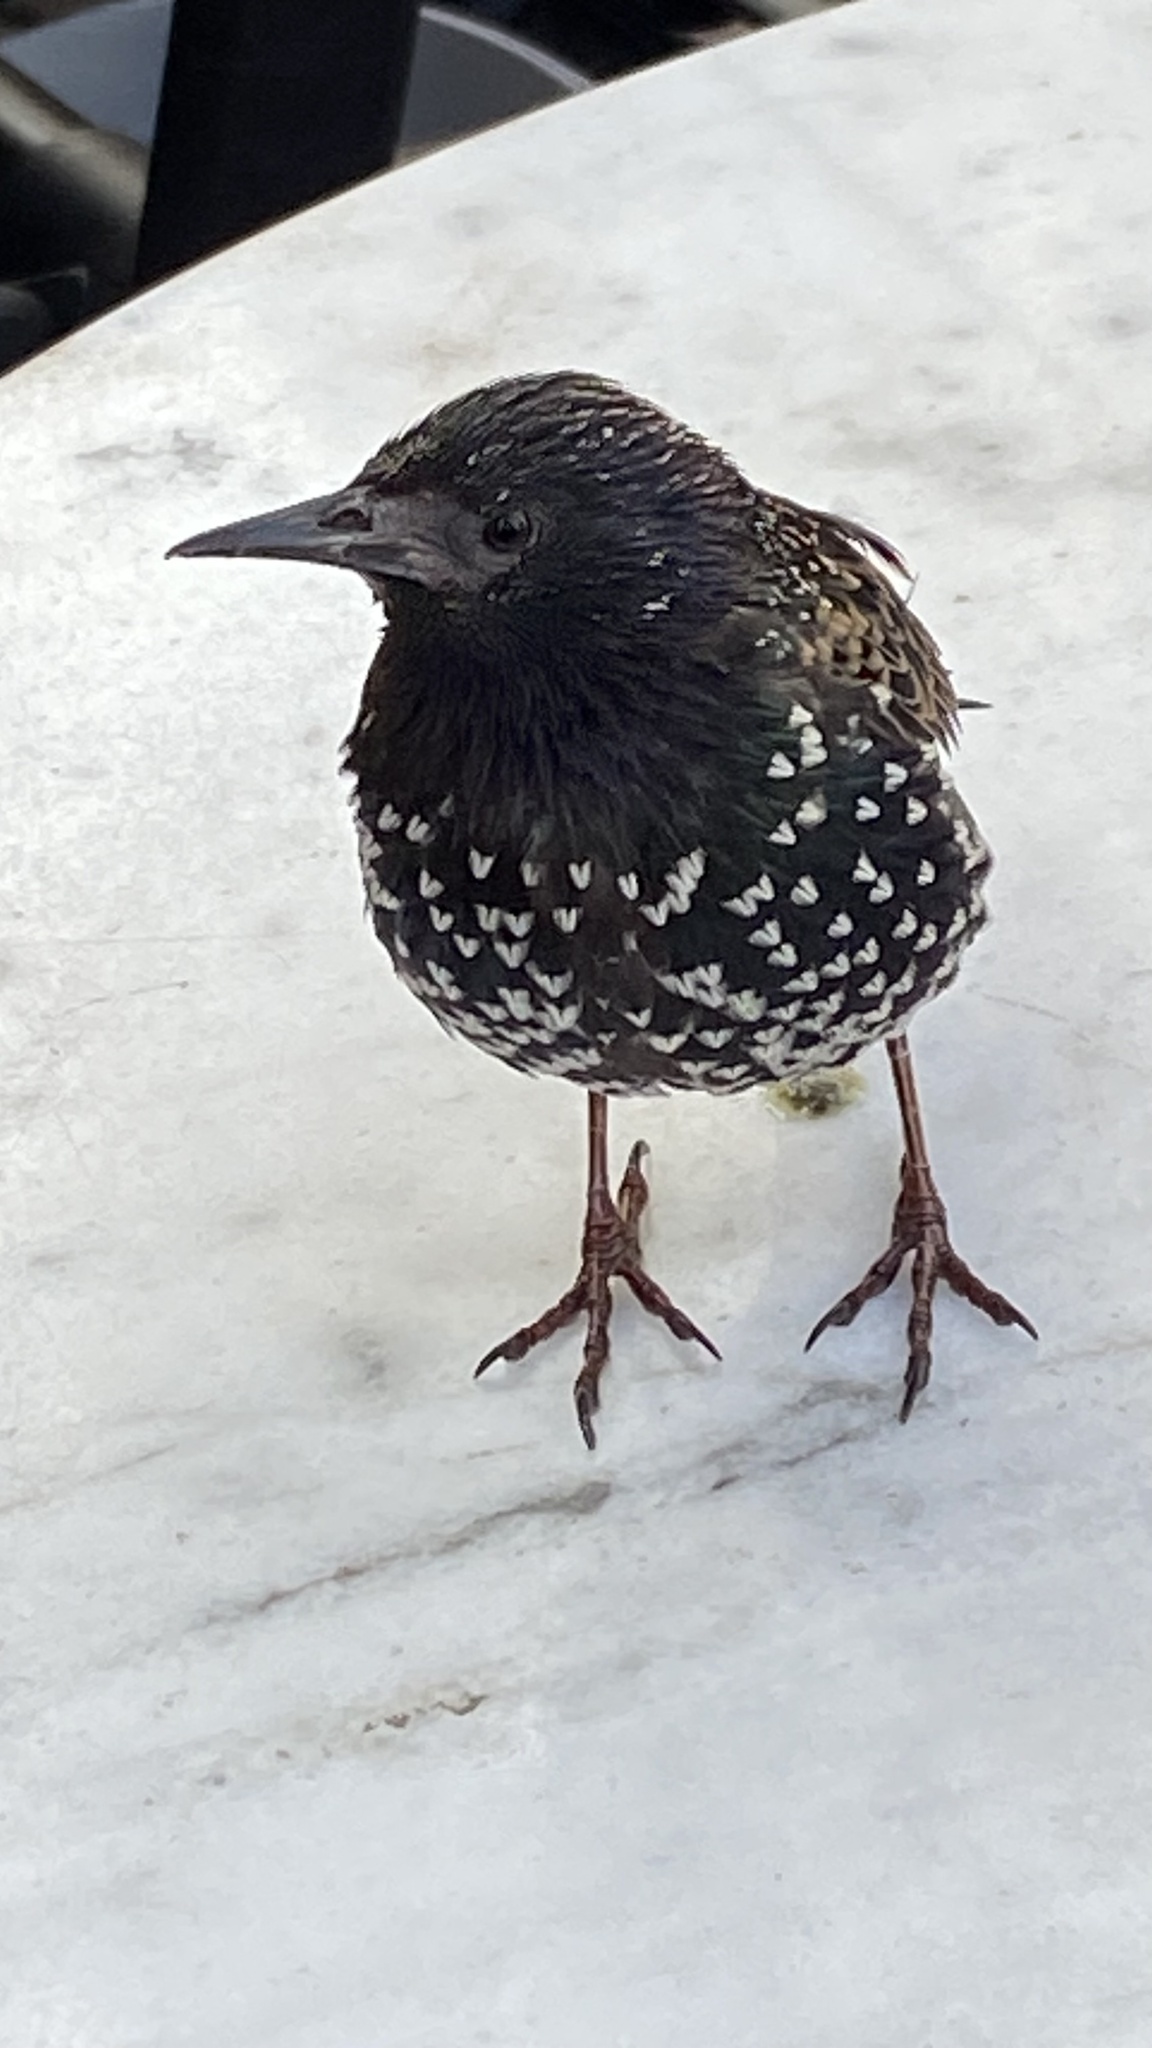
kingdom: Animalia
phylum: Chordata
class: Aves
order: Passeriformes
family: Sturnidae
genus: Sturnus
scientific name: Sturnus vulgaris
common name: Common starling
